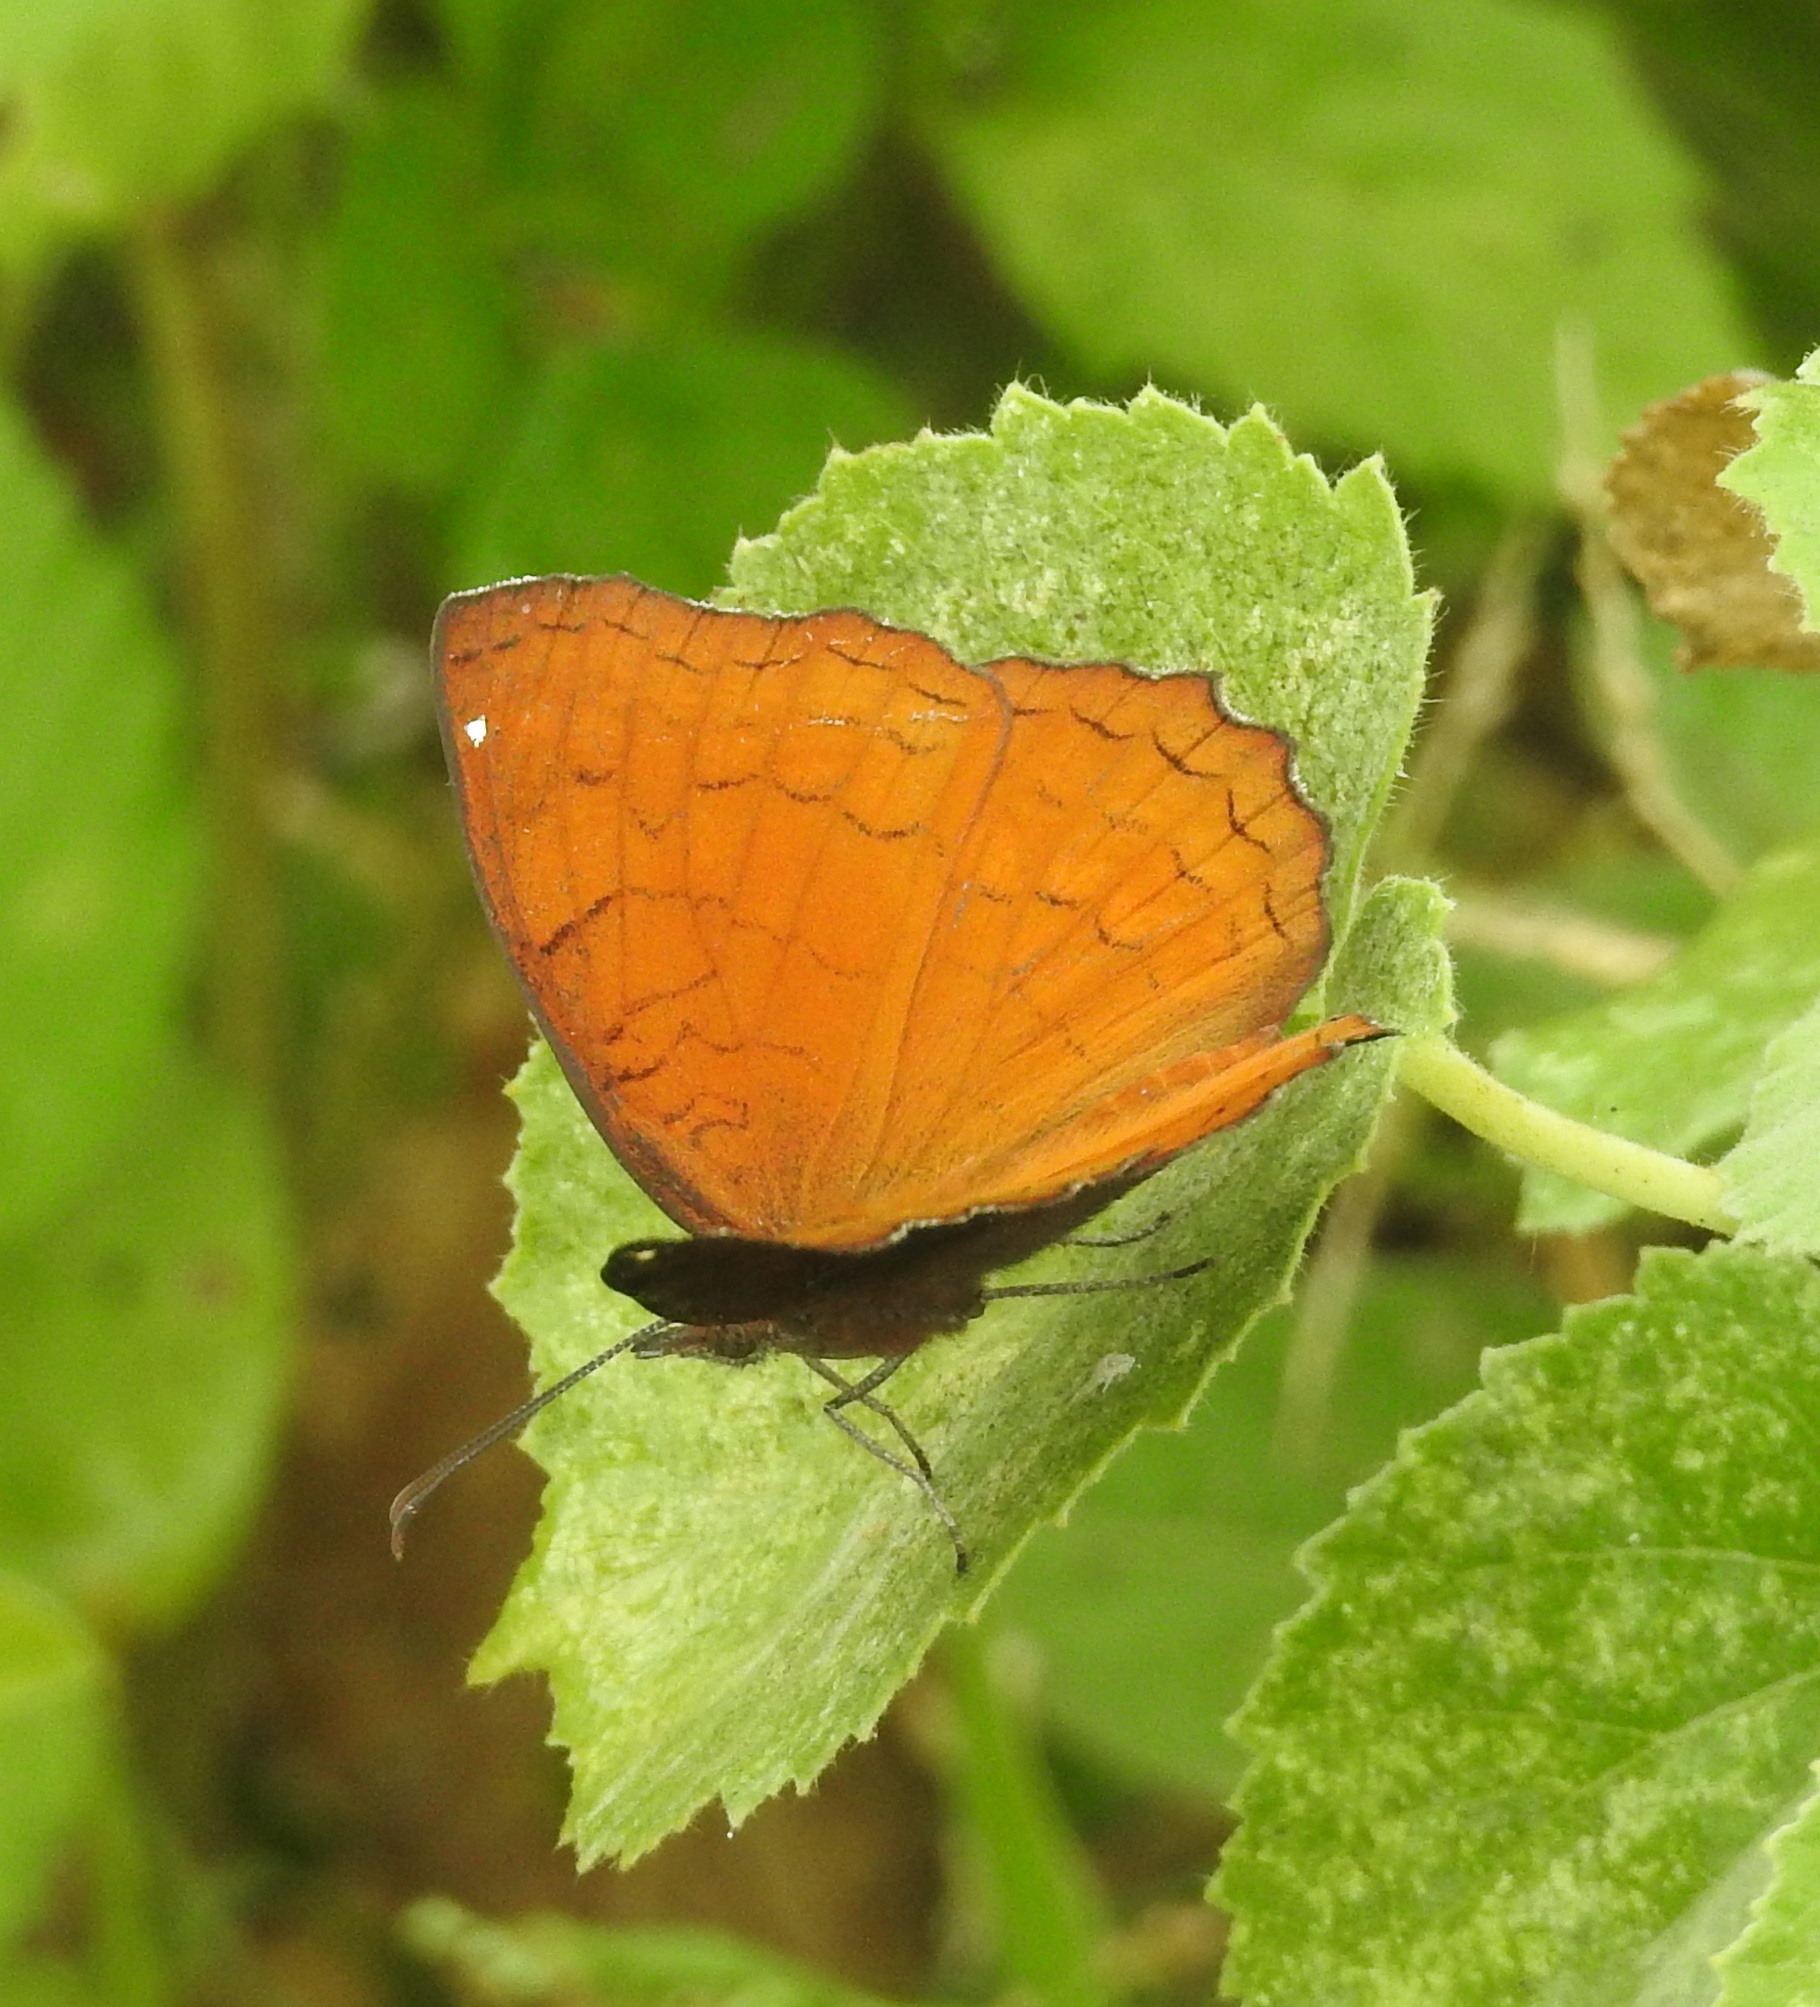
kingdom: Animalia
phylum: Arthropoda
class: Insecta
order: Lepidoptera
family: Nymphalidae
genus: Ariadne
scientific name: Ariadne ariadne
